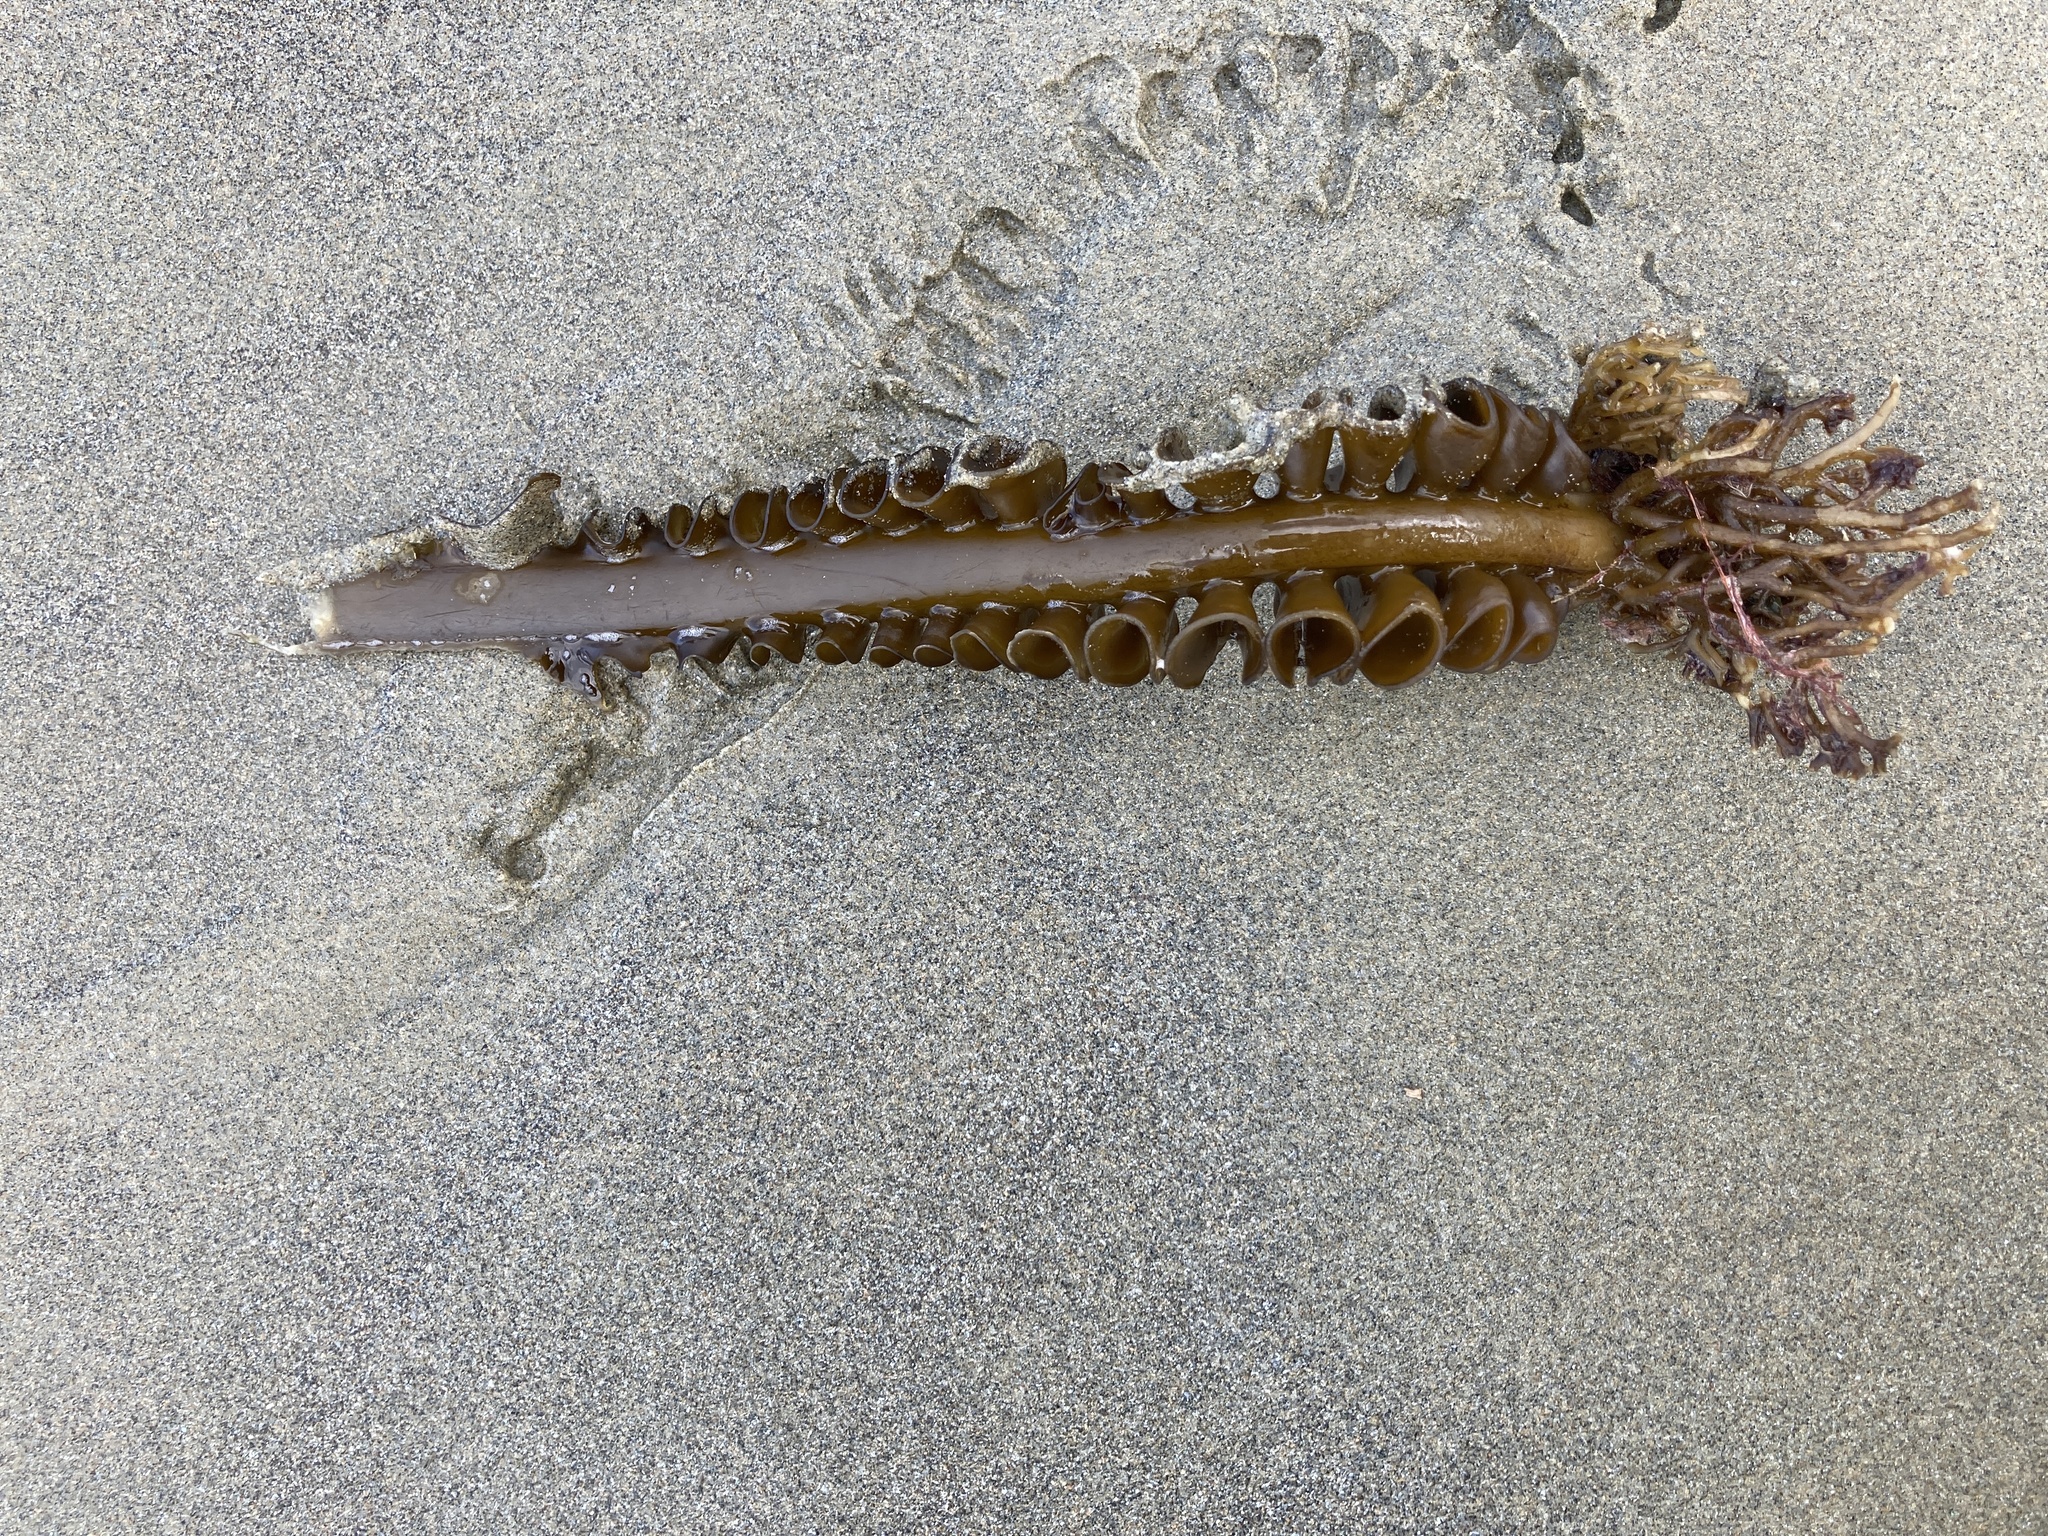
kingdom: Chromista
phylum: Ochrophyta
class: Phaeophyceae
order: Laminariales
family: Alariaceae
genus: Undaria
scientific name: Undaria pinnatifida
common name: Asian kelp
